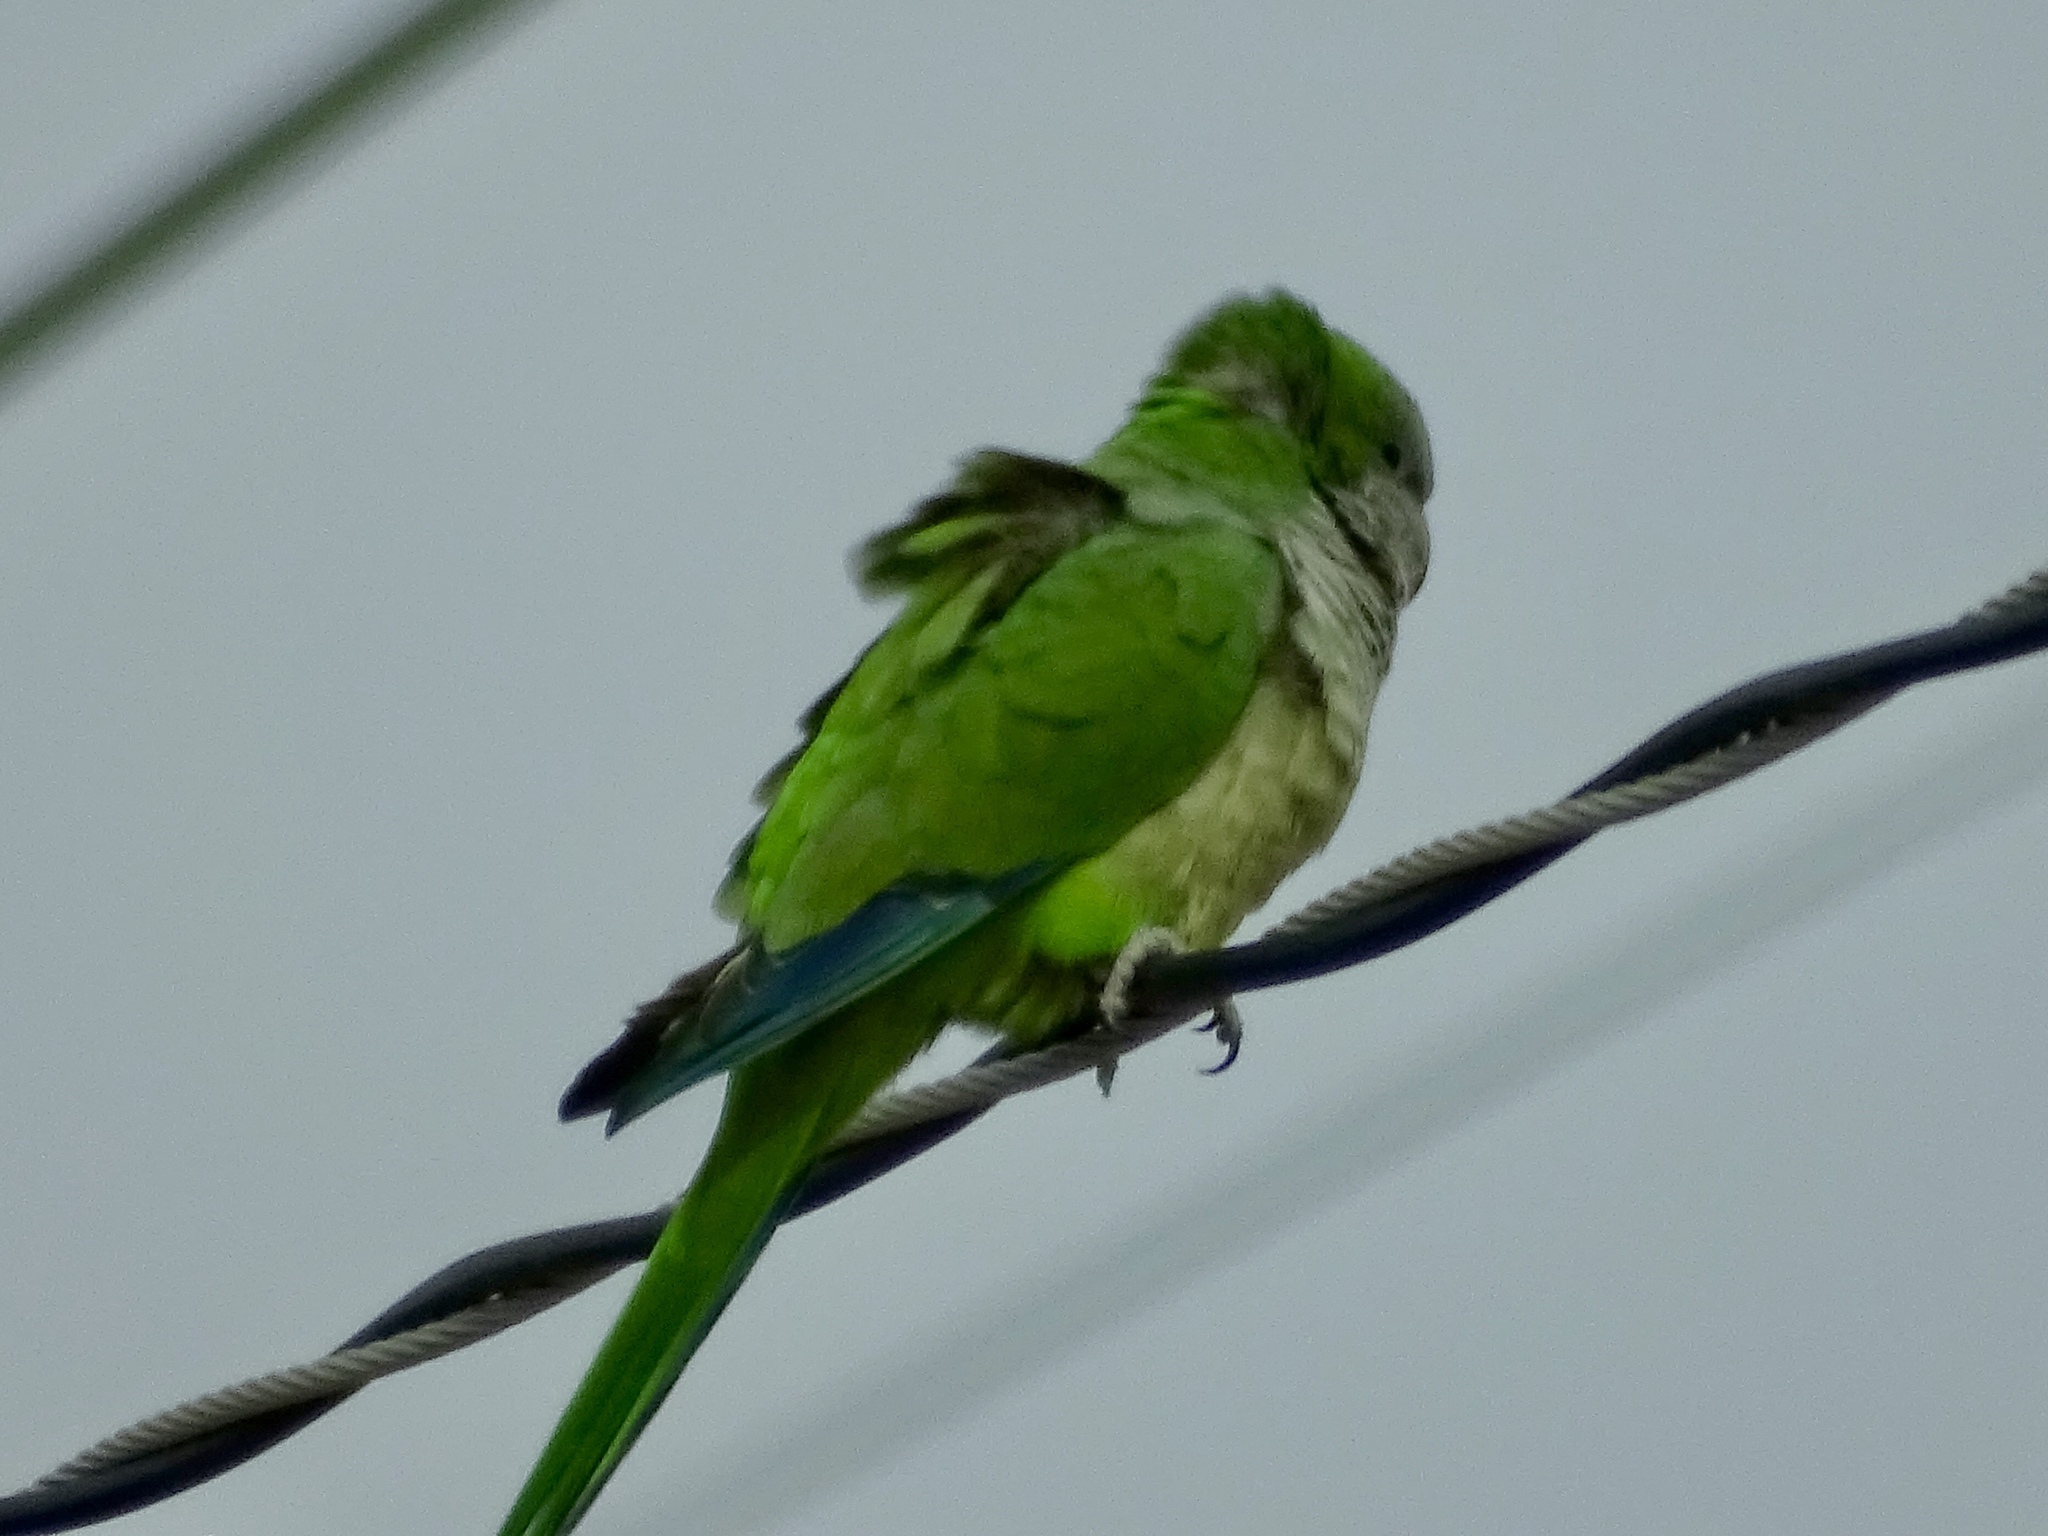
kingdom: Animalia
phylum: Chordata
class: Aves
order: Psittaciformes
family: Psittacidae
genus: Myiopsitta
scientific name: Myiopsitta monachus
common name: Monk parakeet
